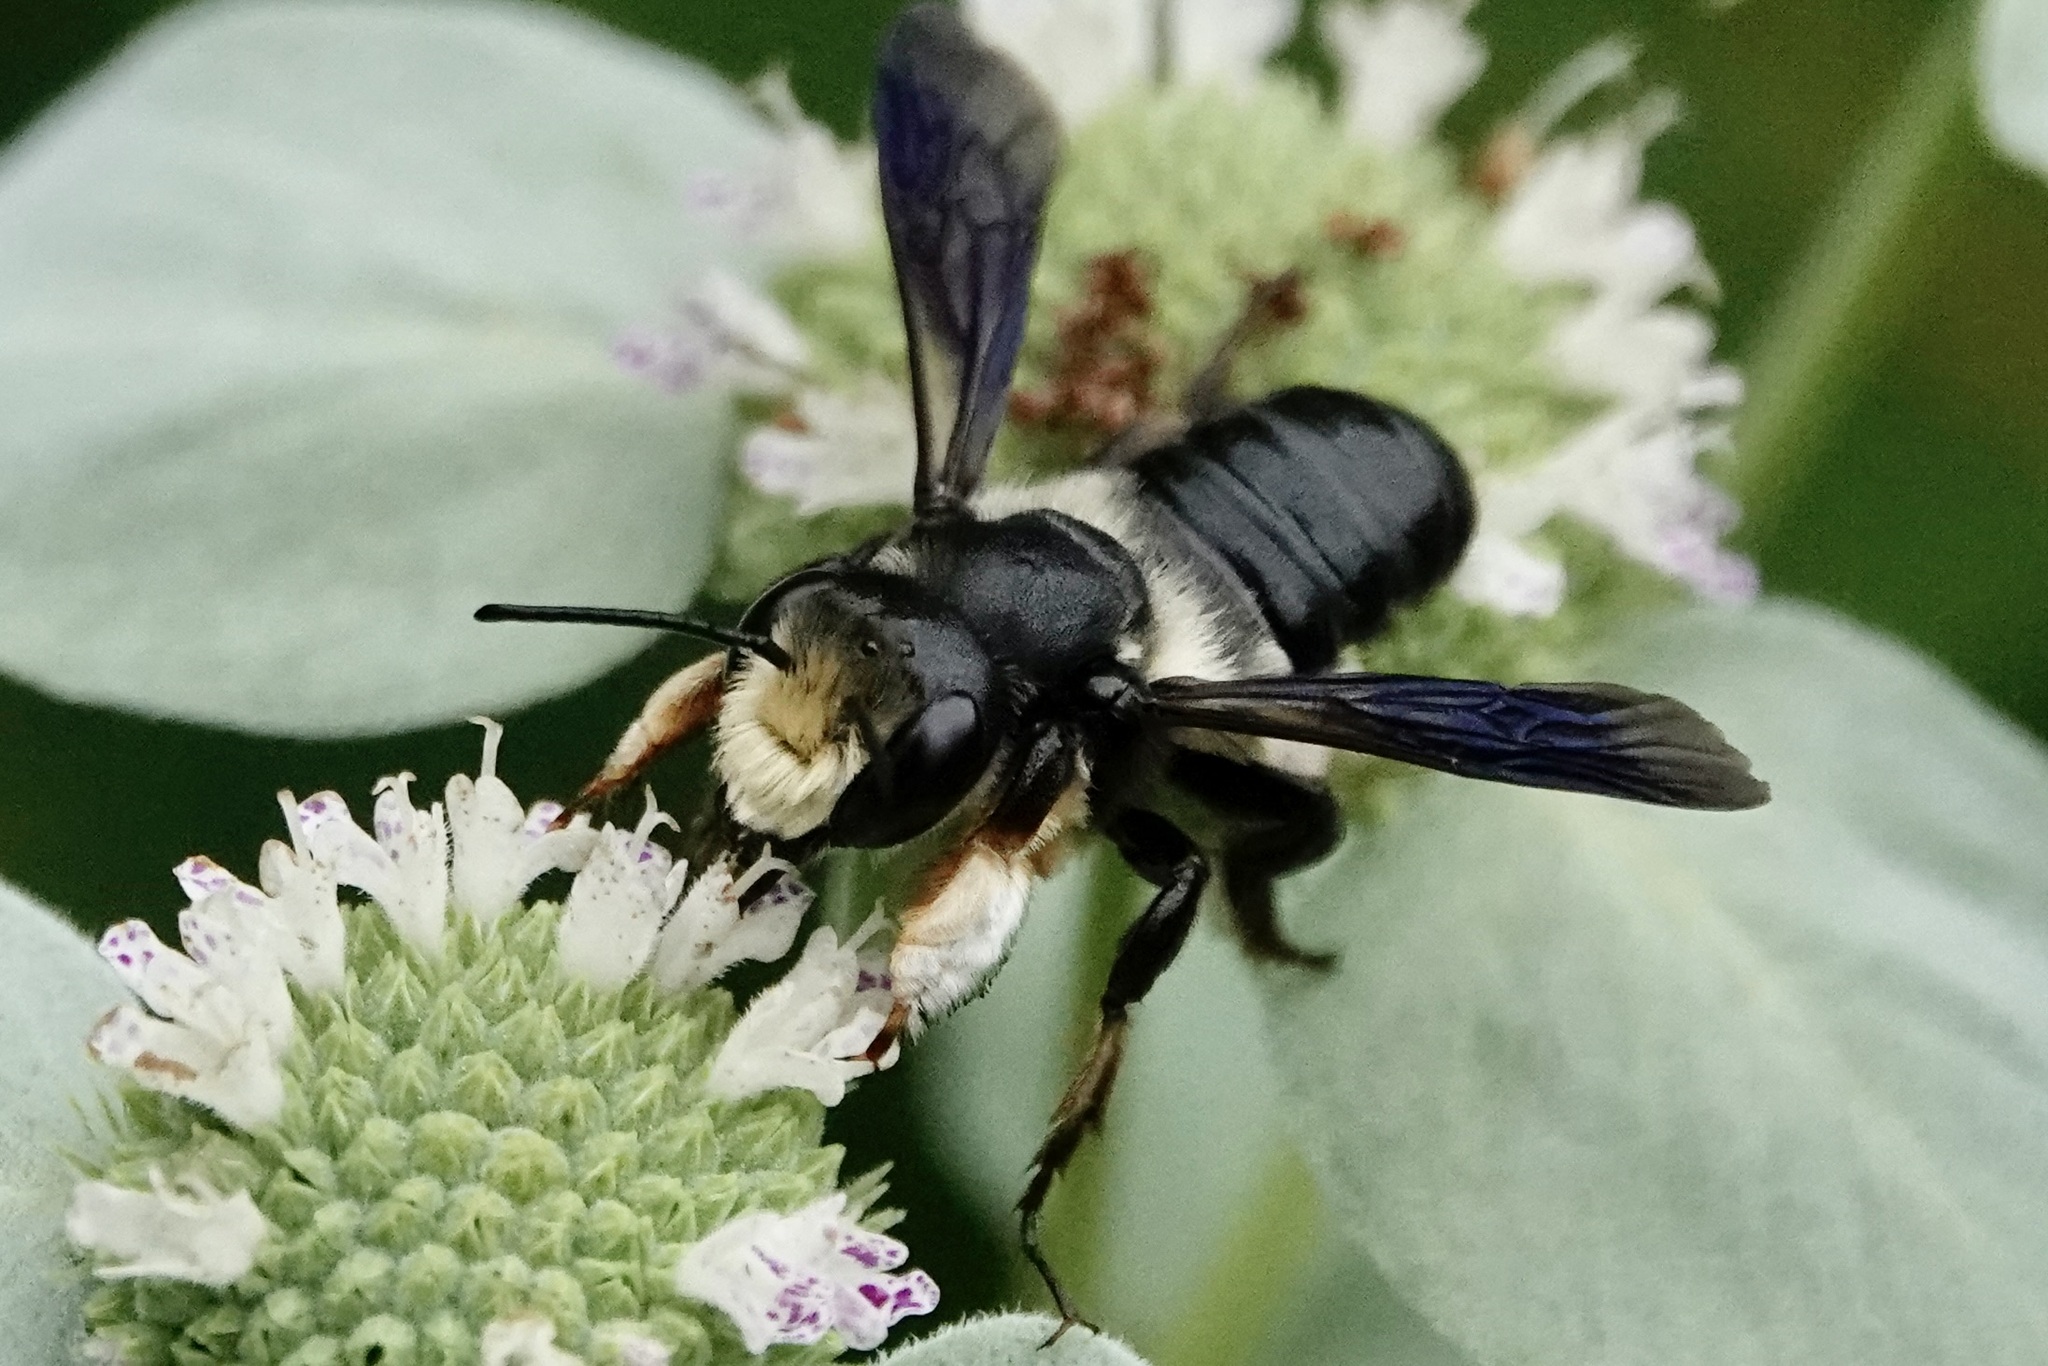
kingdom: Animalia
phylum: Arthropoda
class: Insecta
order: Hymenoptera
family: Megachilidae
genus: Megachile
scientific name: Megachile xylocopoides
